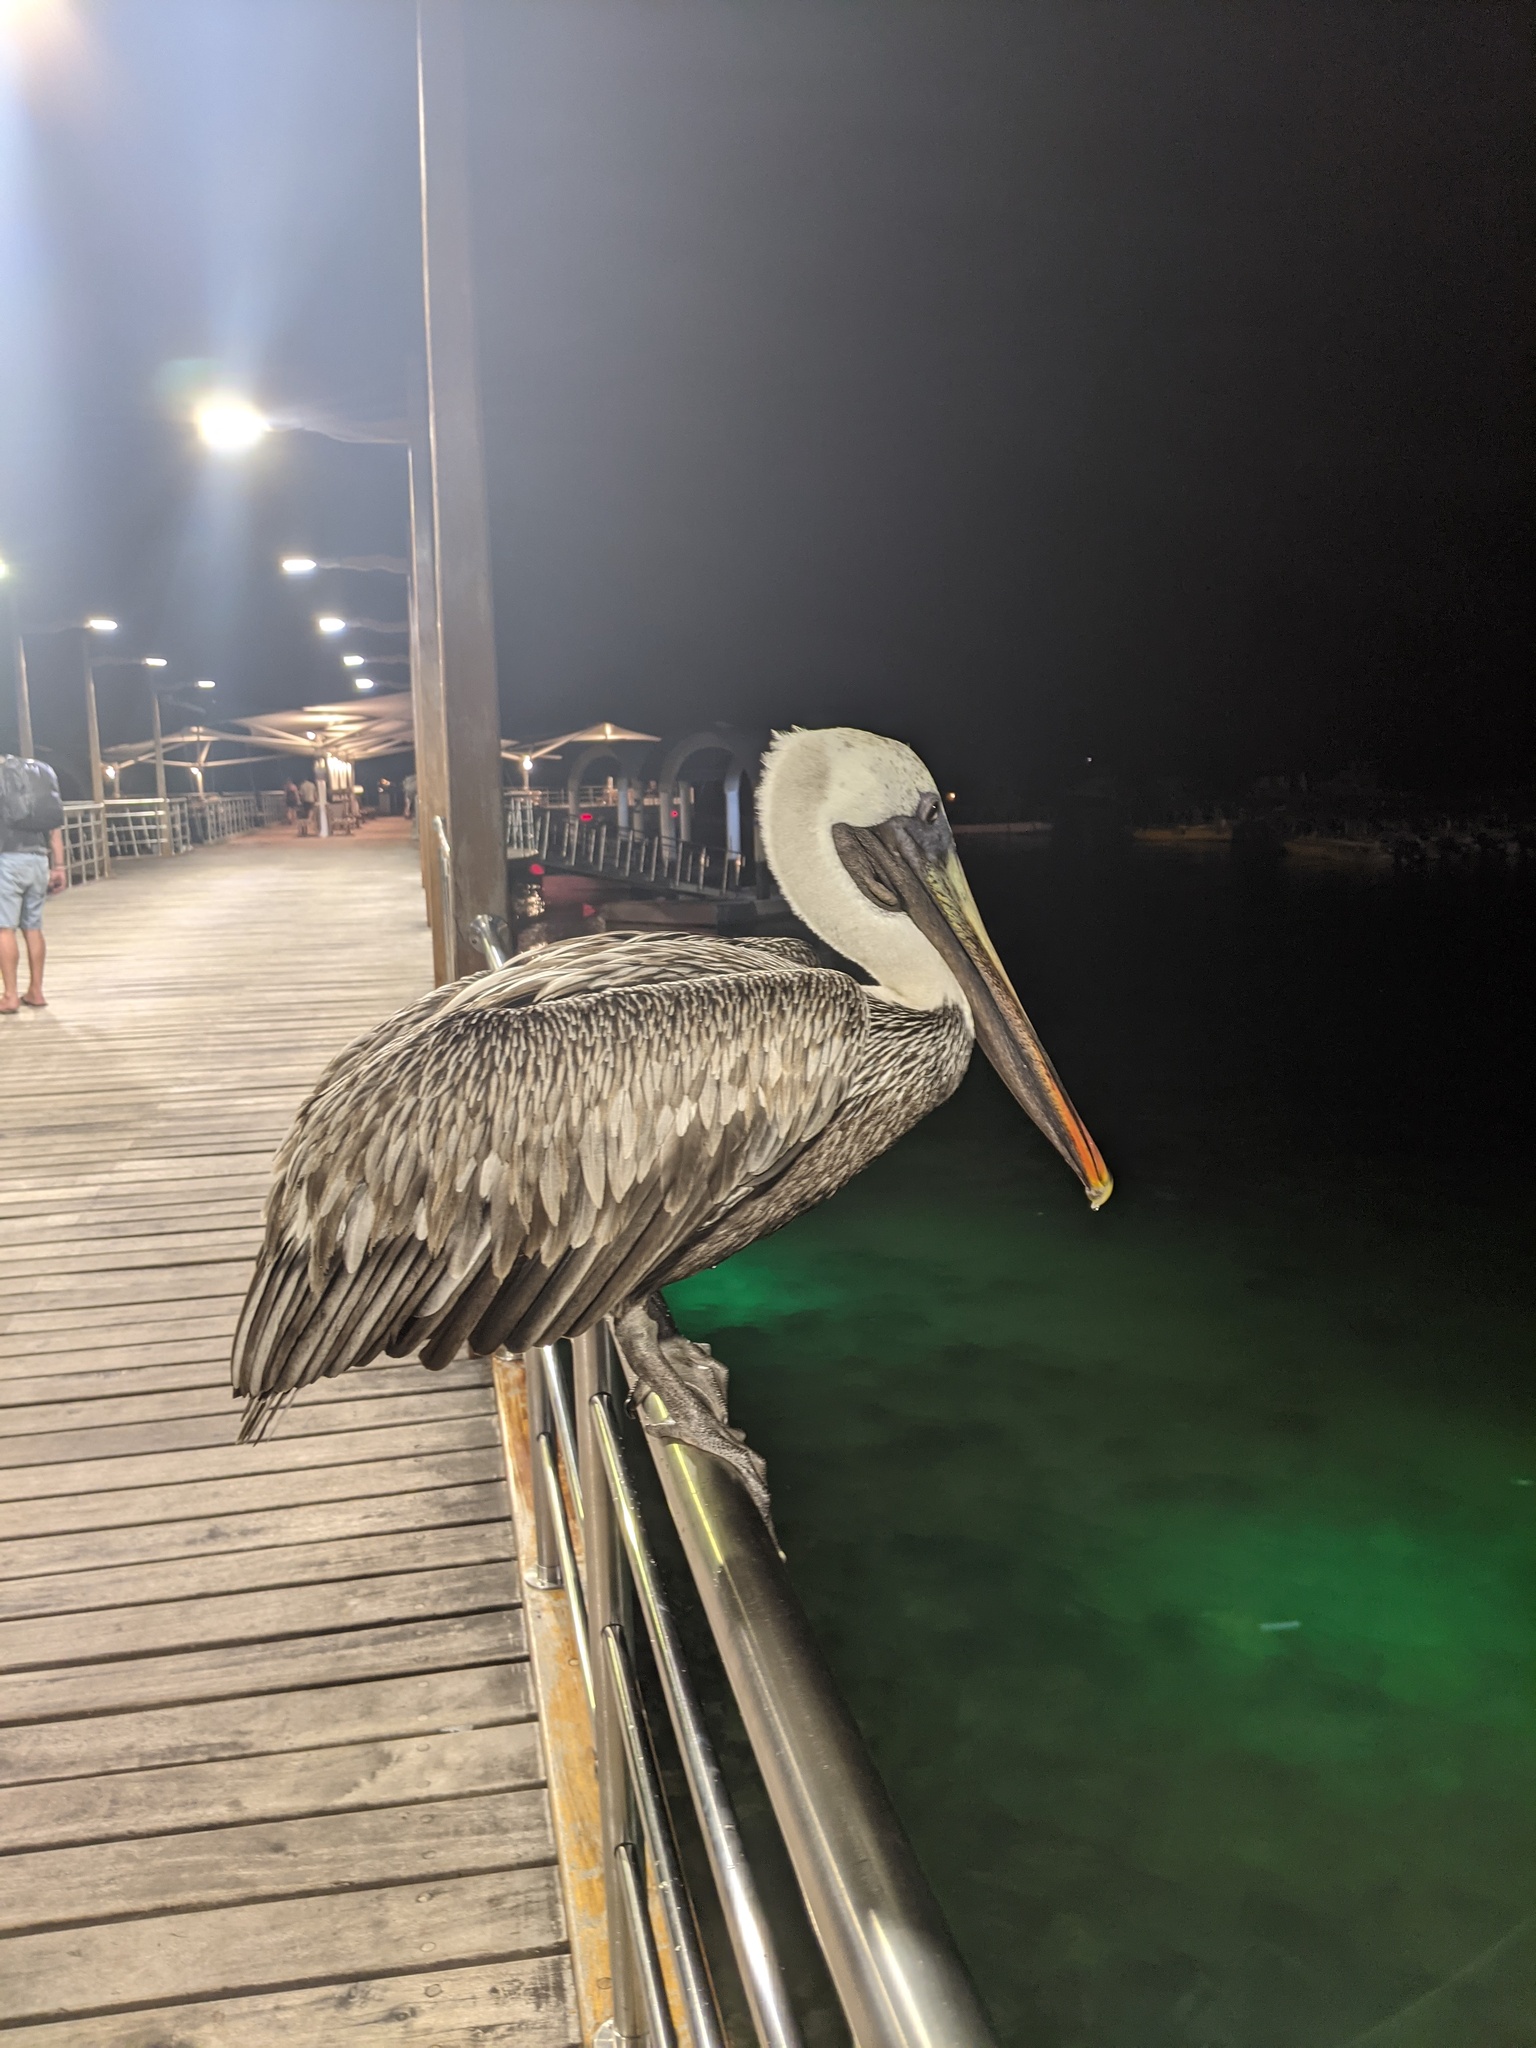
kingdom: Animalia
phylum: Chordata
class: Aves
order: Pelecaniformes
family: Pelecanidae
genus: Pelecanus
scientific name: Pelecanus occidentalis
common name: Brown pelican
